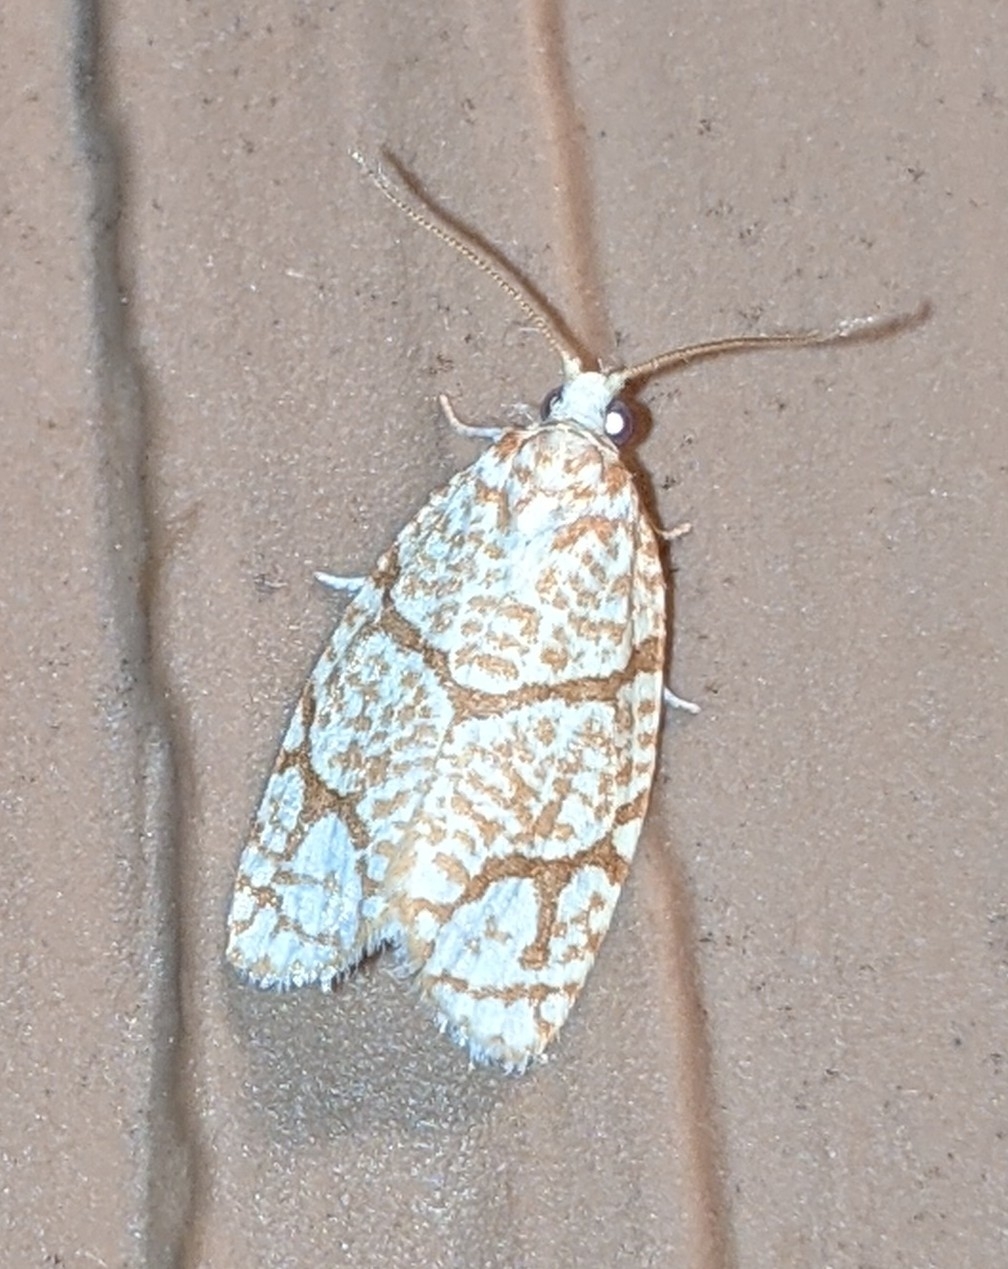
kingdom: Animalia
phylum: Arthropoda
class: Insecta
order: Lepidoptera
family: Tortricidae
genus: Argyrotaenia
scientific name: Argyrotaenia quercifoliana
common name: Yellow-winged oak leafroller moth
